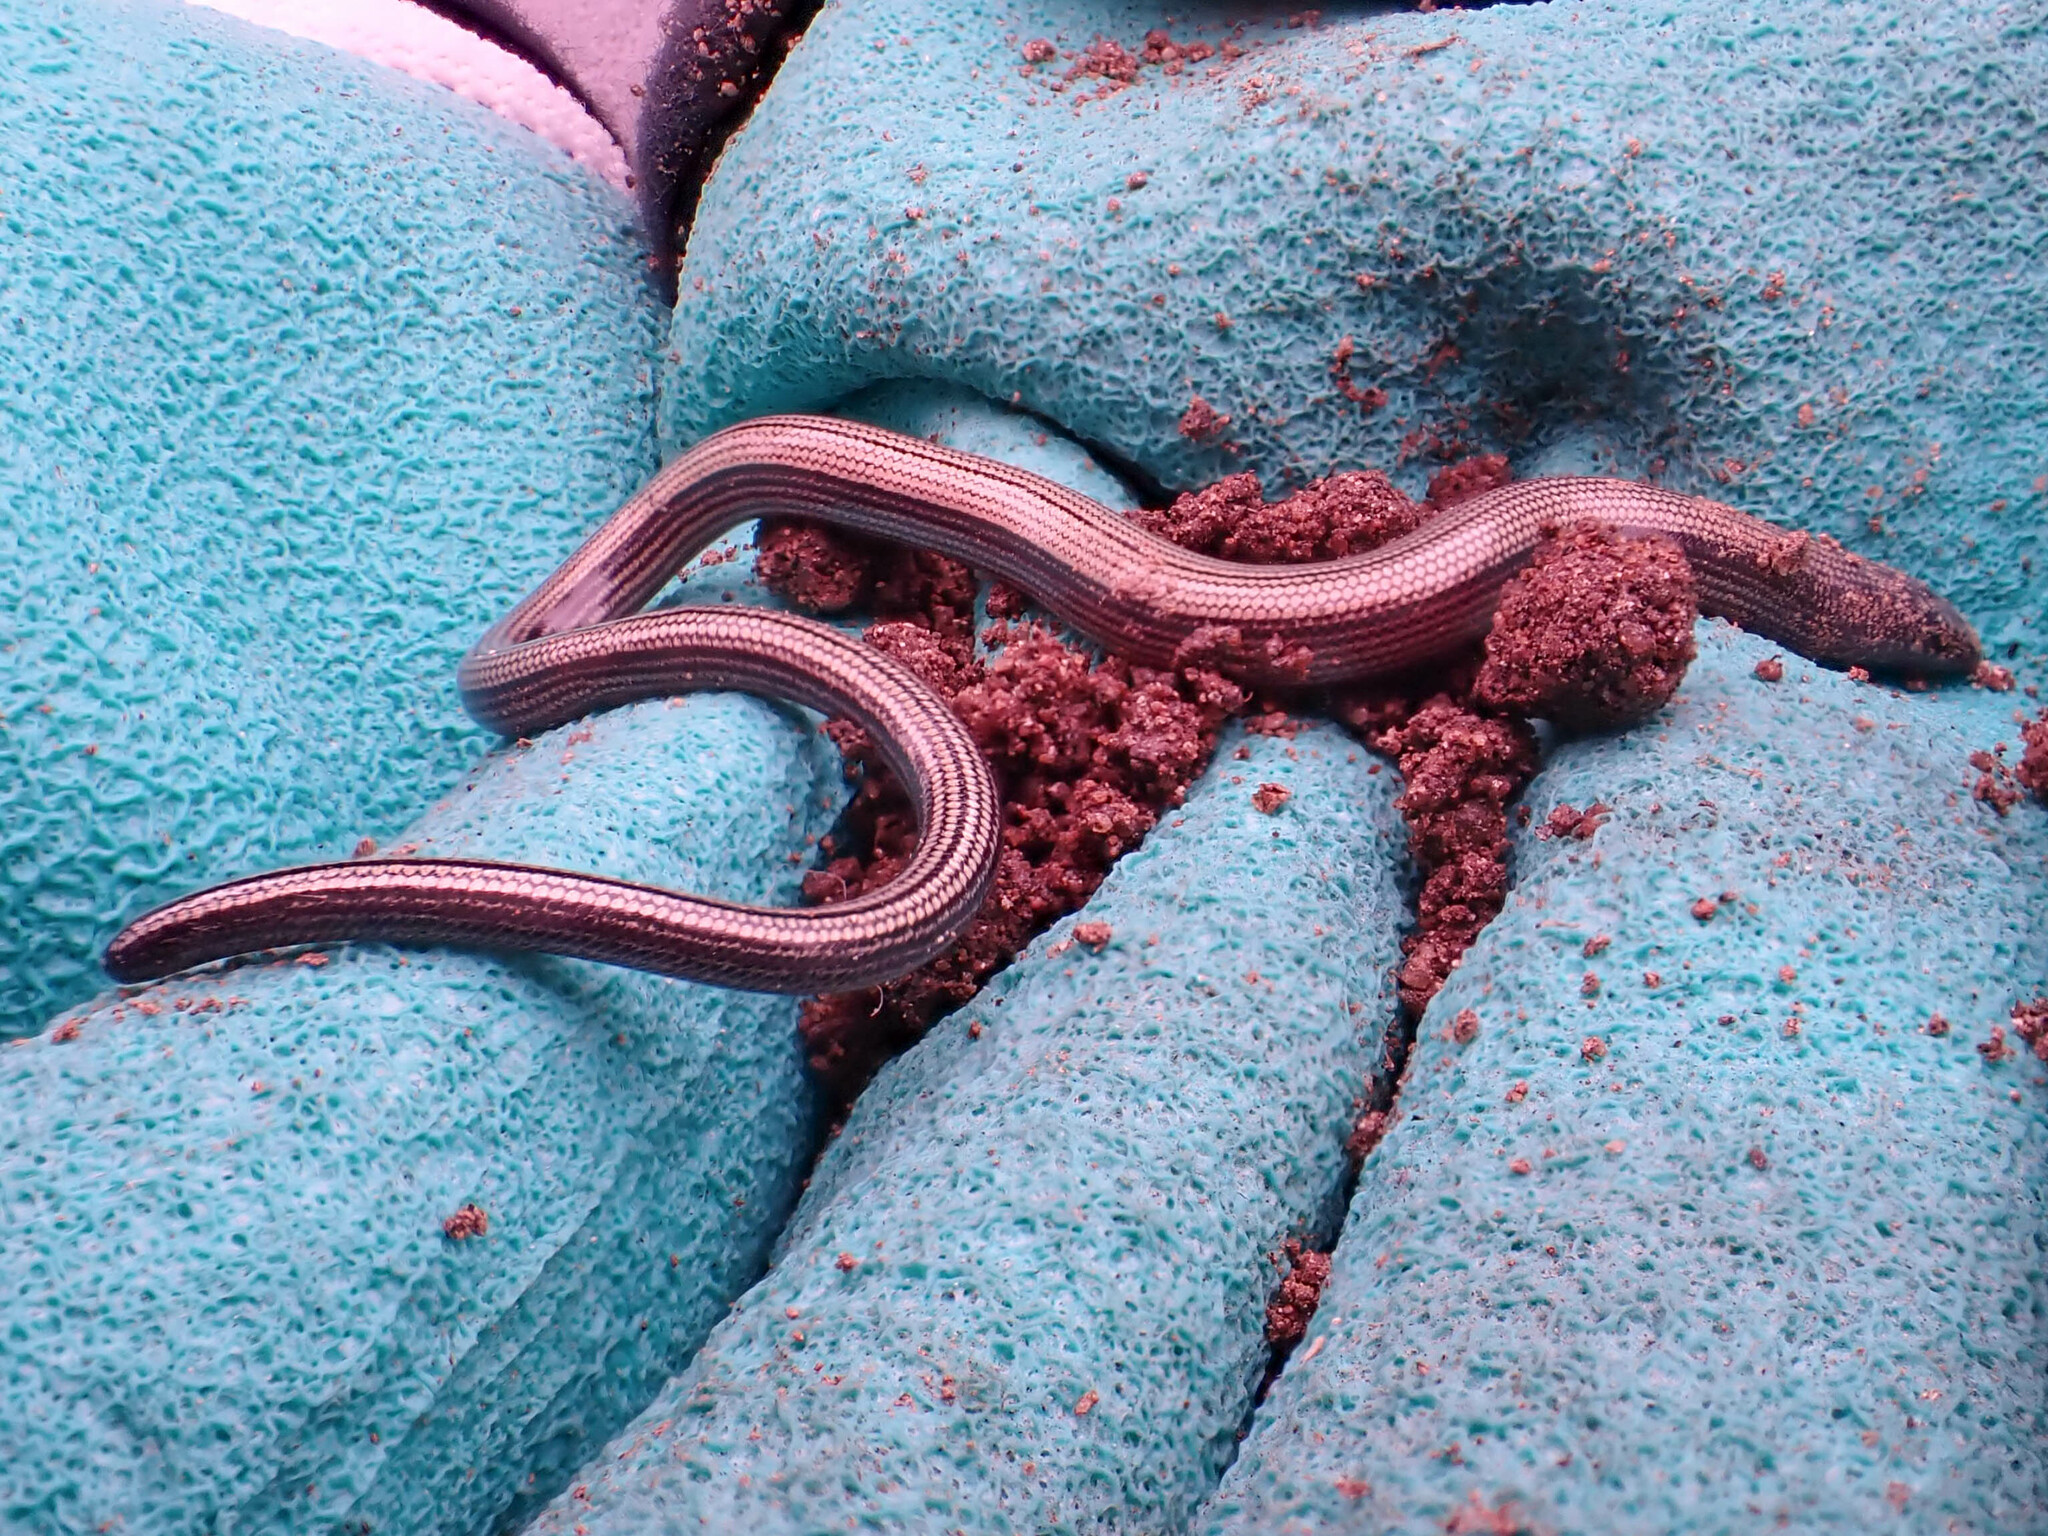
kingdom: Animalia
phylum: Chordata
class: Squamata
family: Anguidae
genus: Anniella
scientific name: Anniella stebbinsi
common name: Southern california legless lizard
